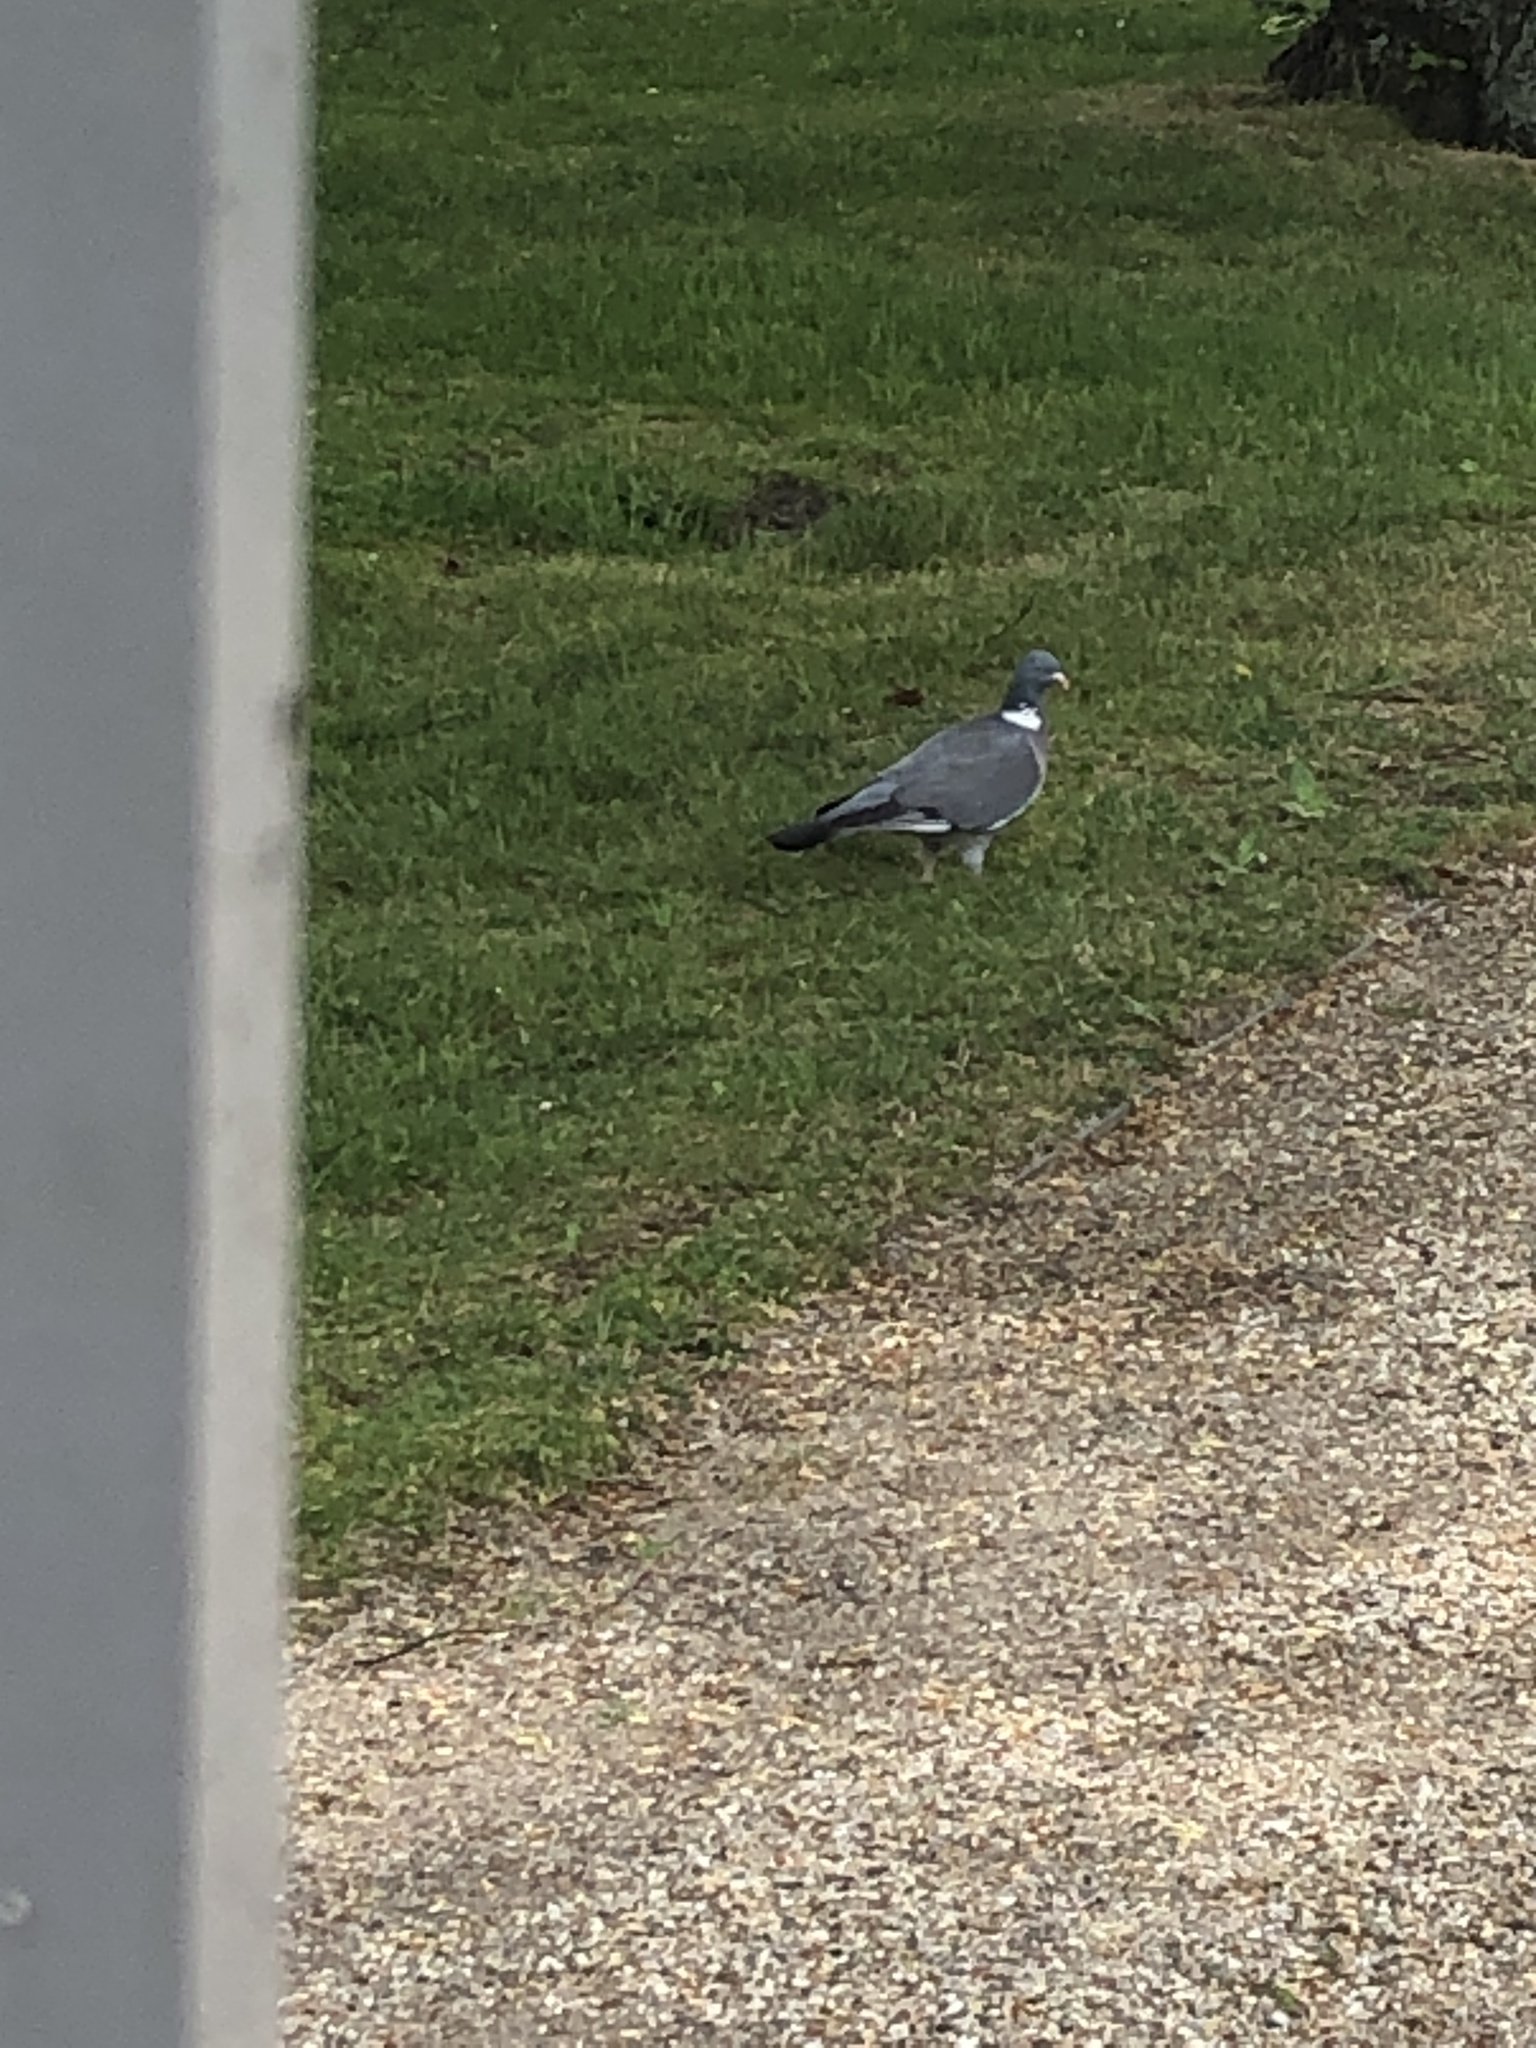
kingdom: Animalia
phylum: Chordata
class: Aves
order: Columbiformes
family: Columbidae
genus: Columba
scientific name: Columba palumbus
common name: Common wood pigeon
